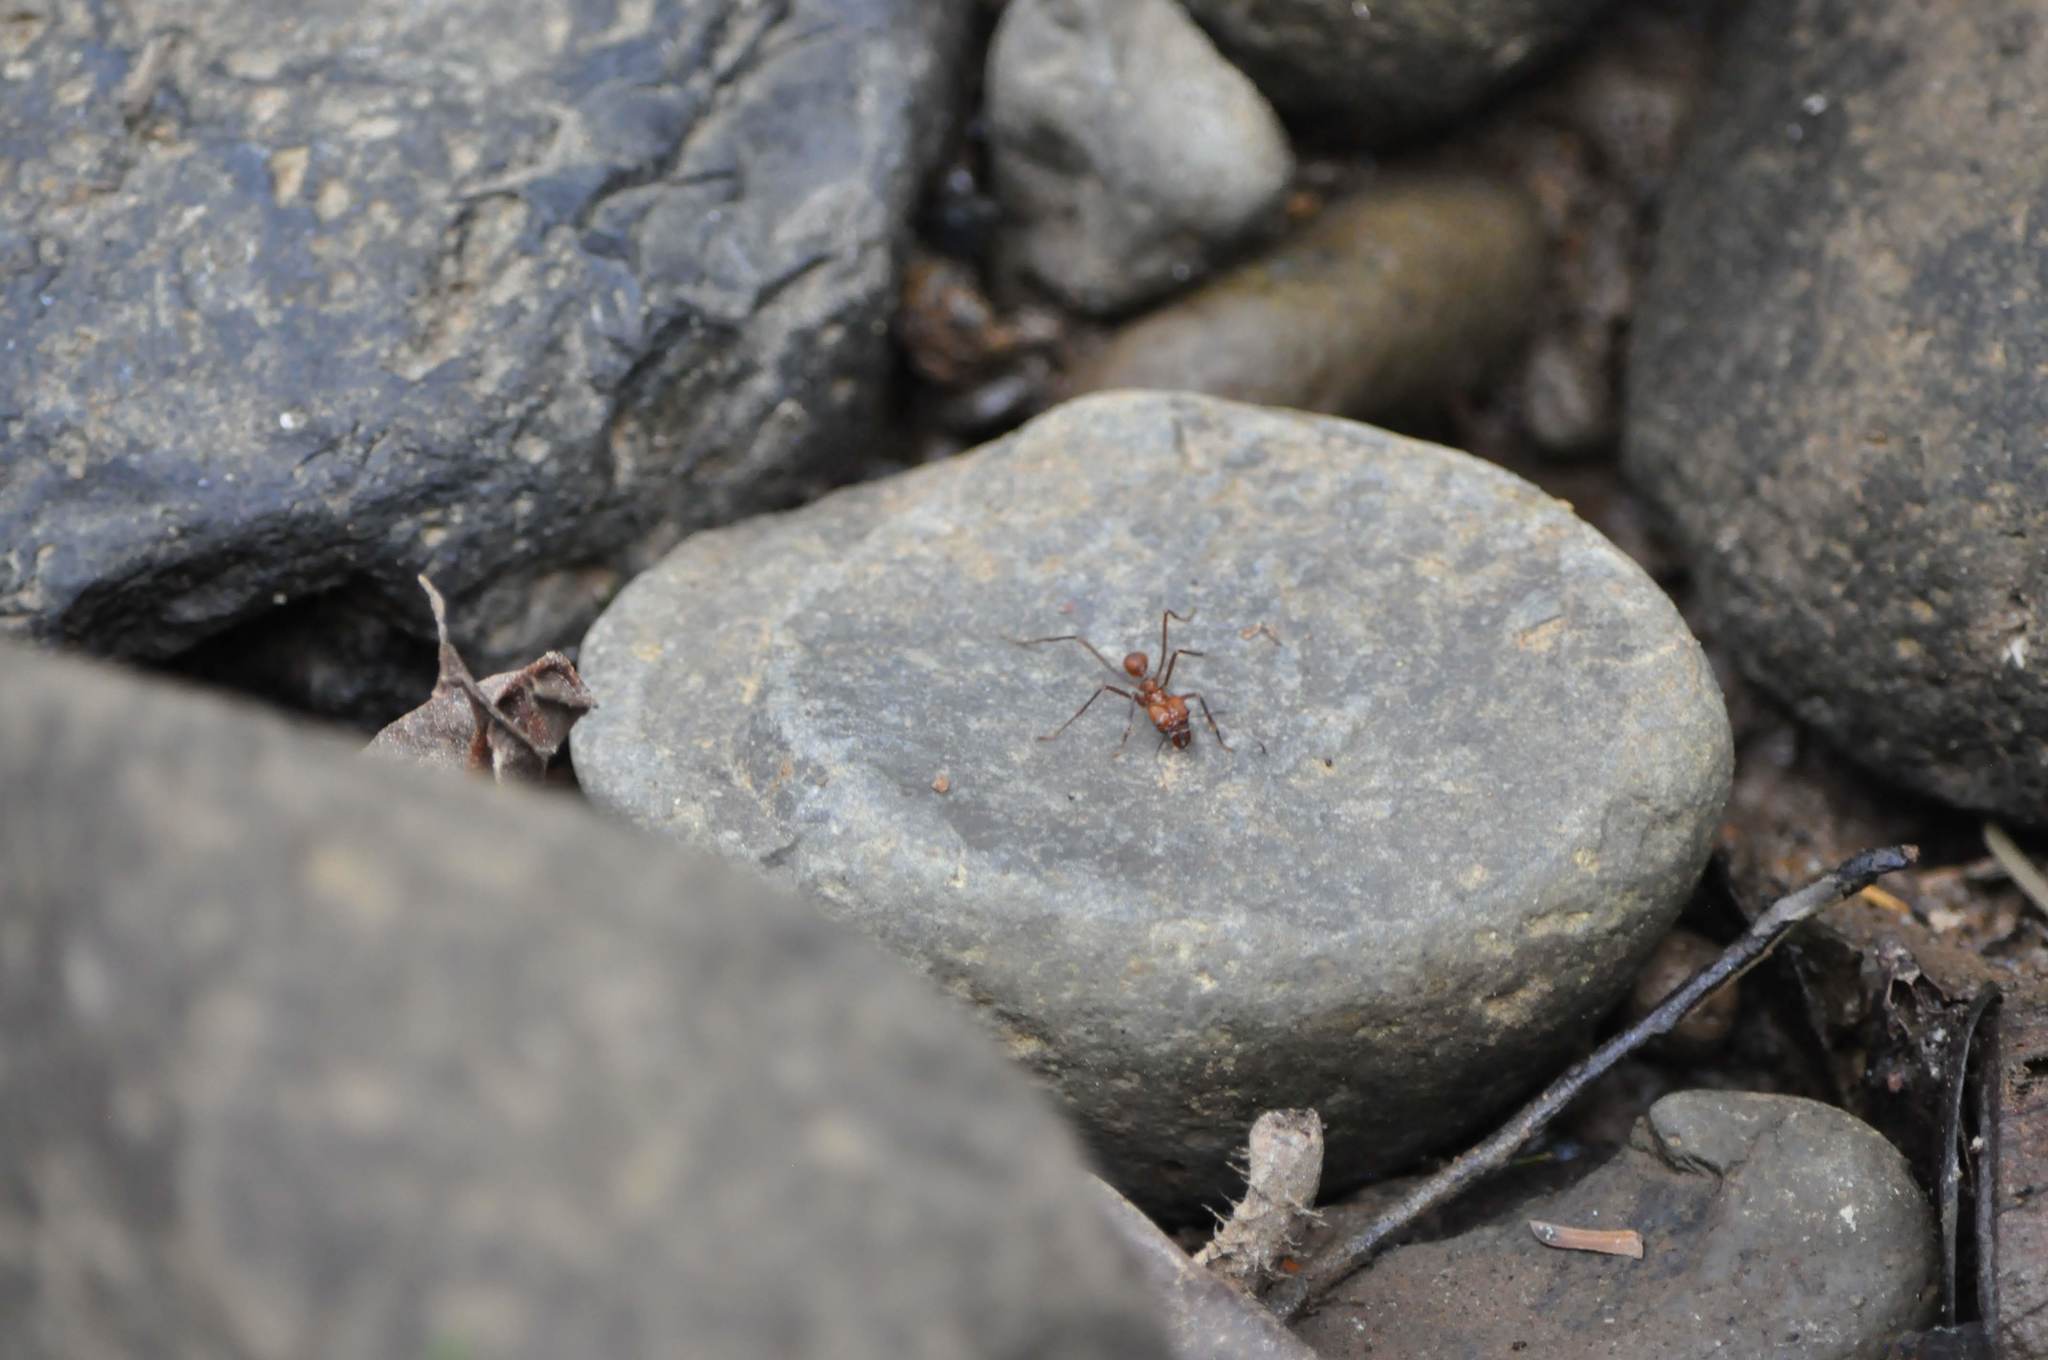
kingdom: Animalia
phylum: Arthropoda
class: Insecta
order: Hymenoptera
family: Formicidae
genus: Atta
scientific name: Atta cephalotes
